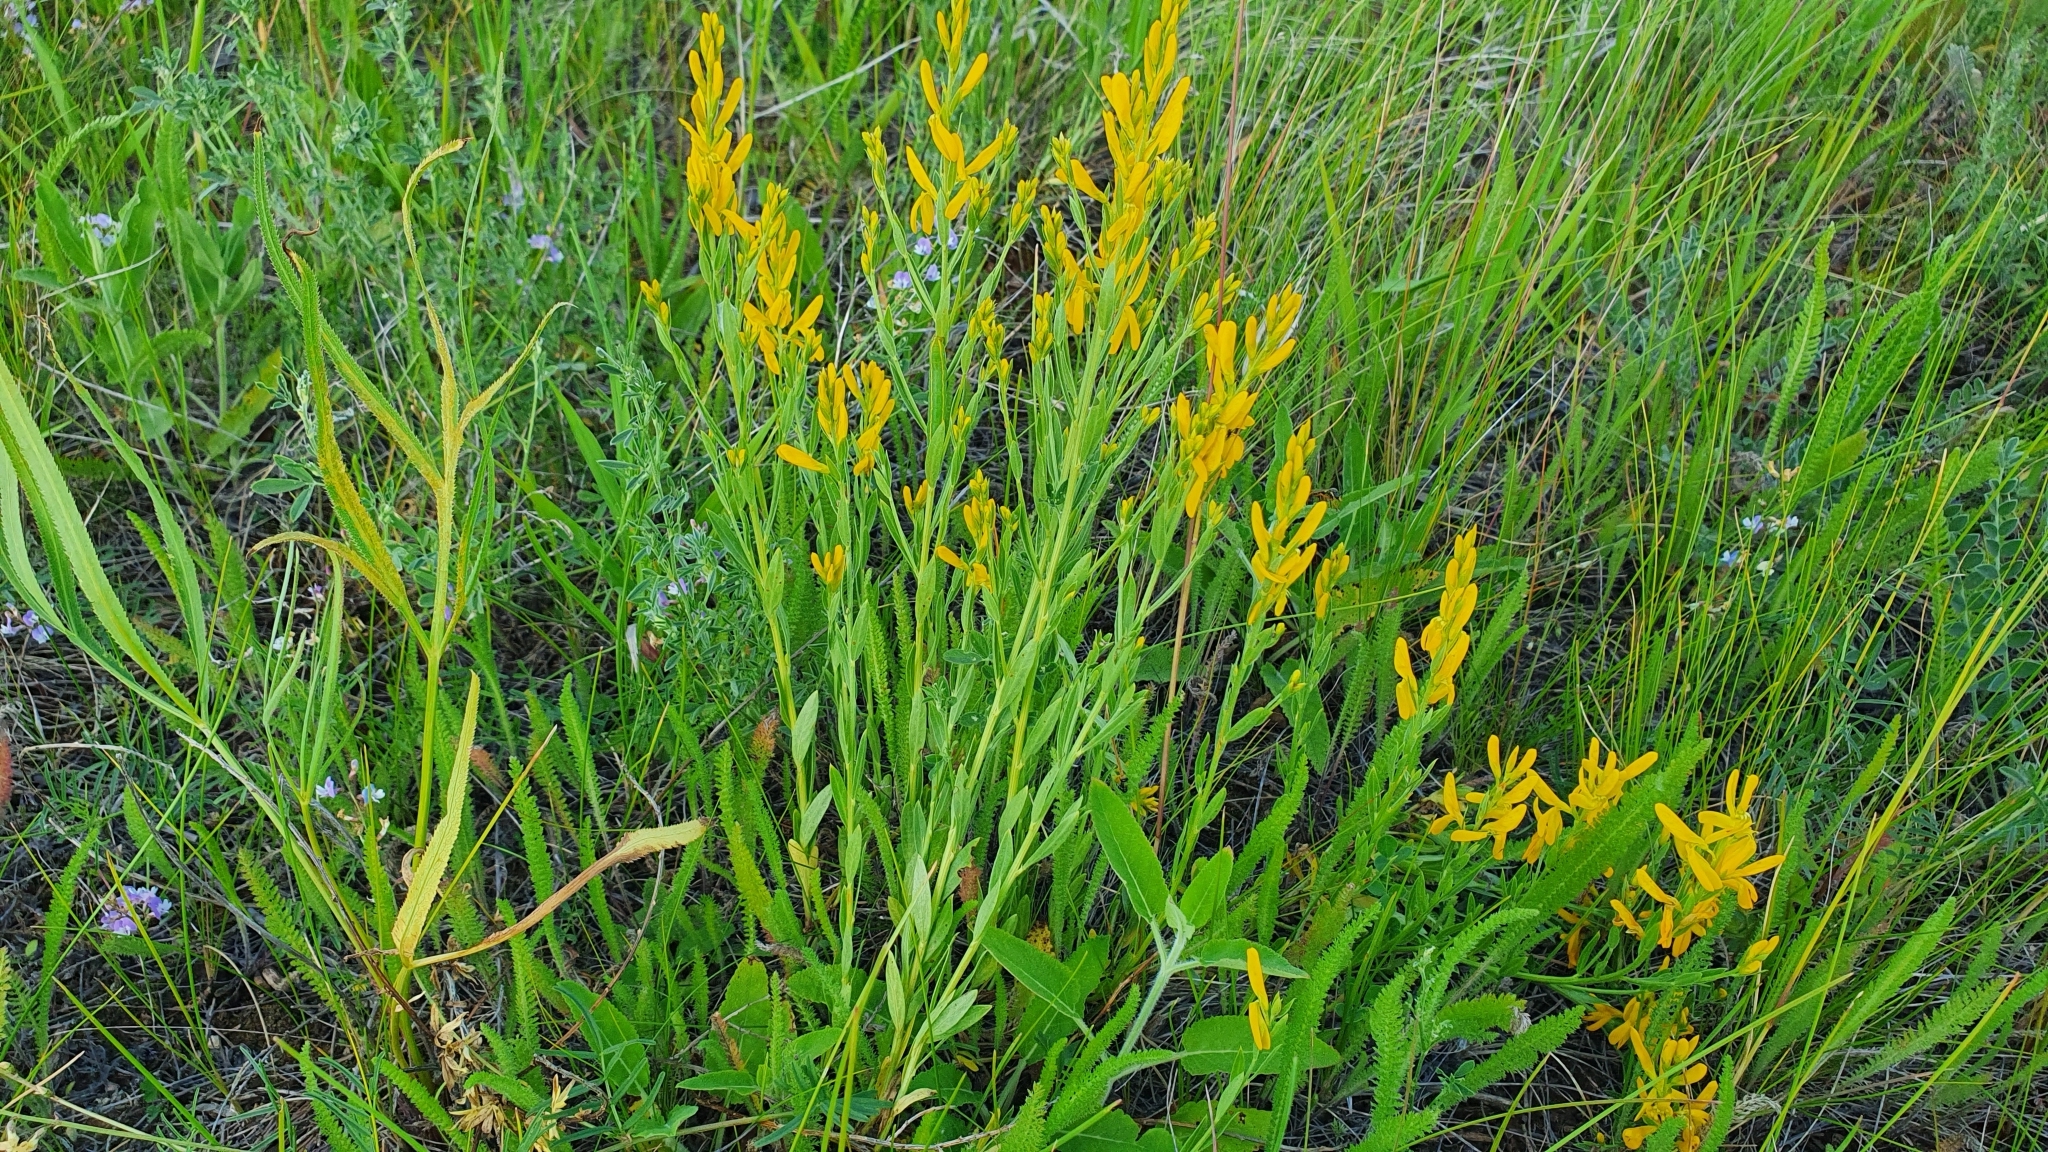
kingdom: Plantae
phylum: Tracheophyta
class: Magnoliopsida
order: Fabales
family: Fabaceae
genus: Genista
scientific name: Genista tinctoria
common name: Dyer's greenweed
